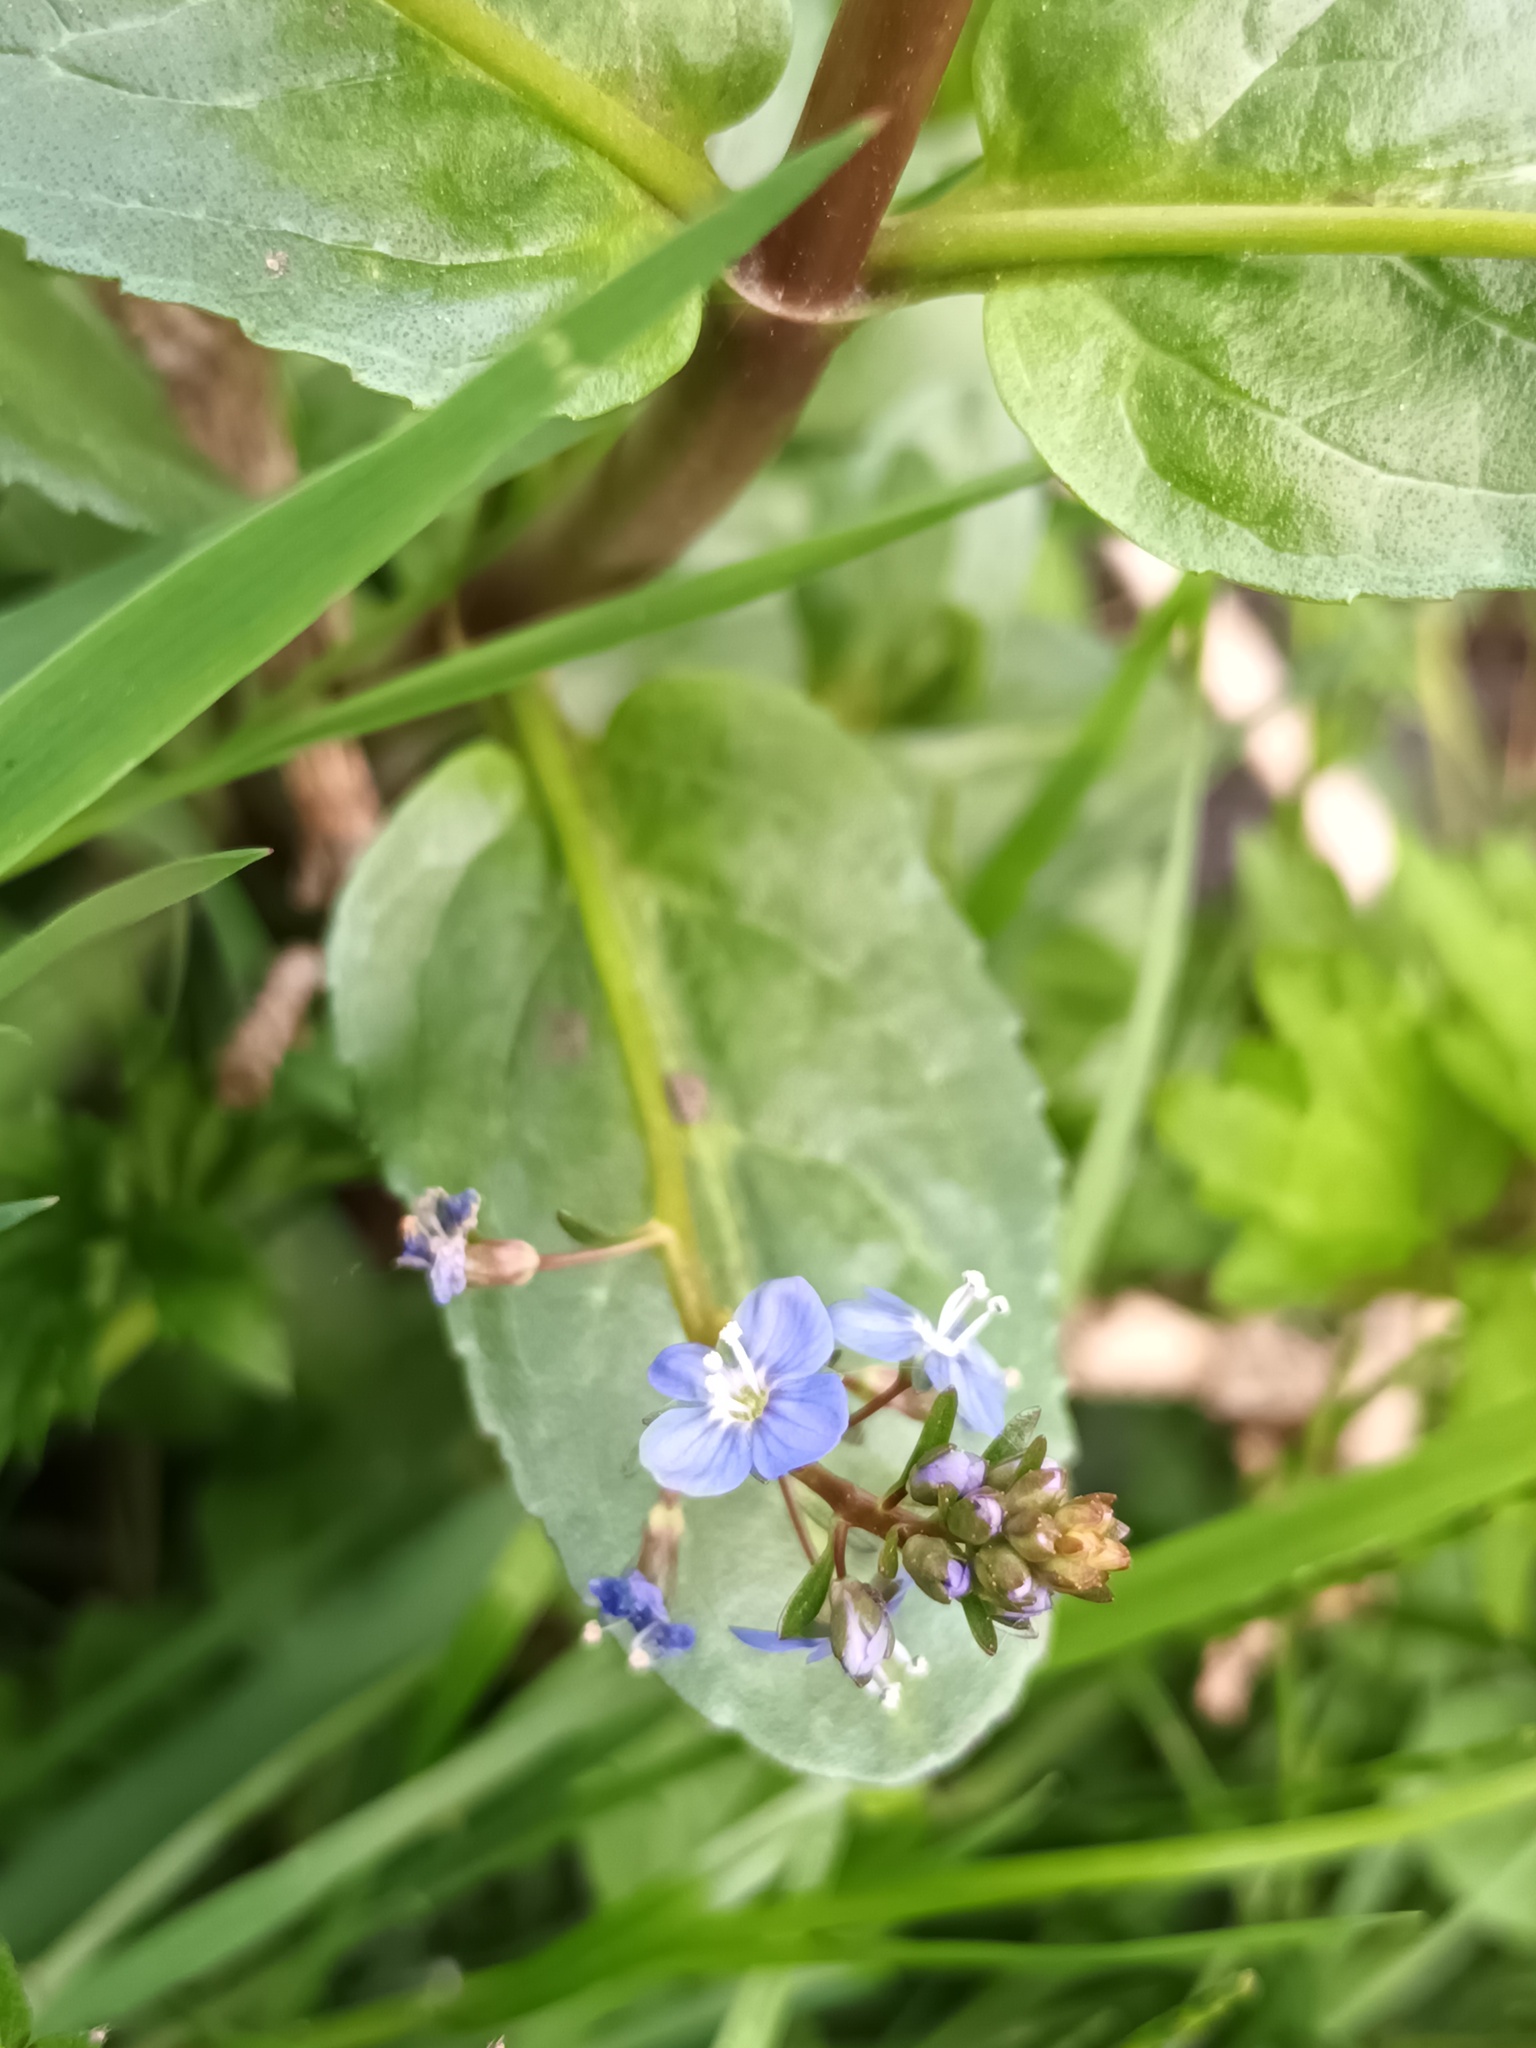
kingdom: Plantae
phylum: Tracheophyta
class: Magnoliopsida
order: Lamiales
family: Plantaginaceae
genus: Veronica
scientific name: Veronica beccabunga
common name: Brooklime
